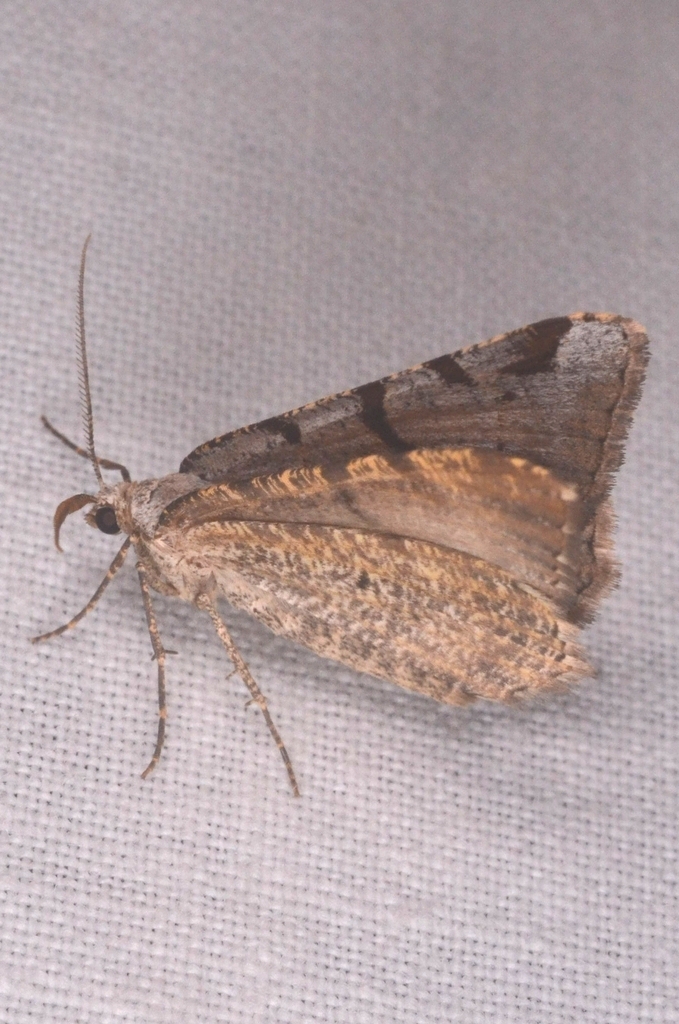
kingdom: Animalia
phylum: Arthropoda
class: Insecta
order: Lepidoptera
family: Geometridae
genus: Macaria
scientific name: Macaria wauaria
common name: V-moth
